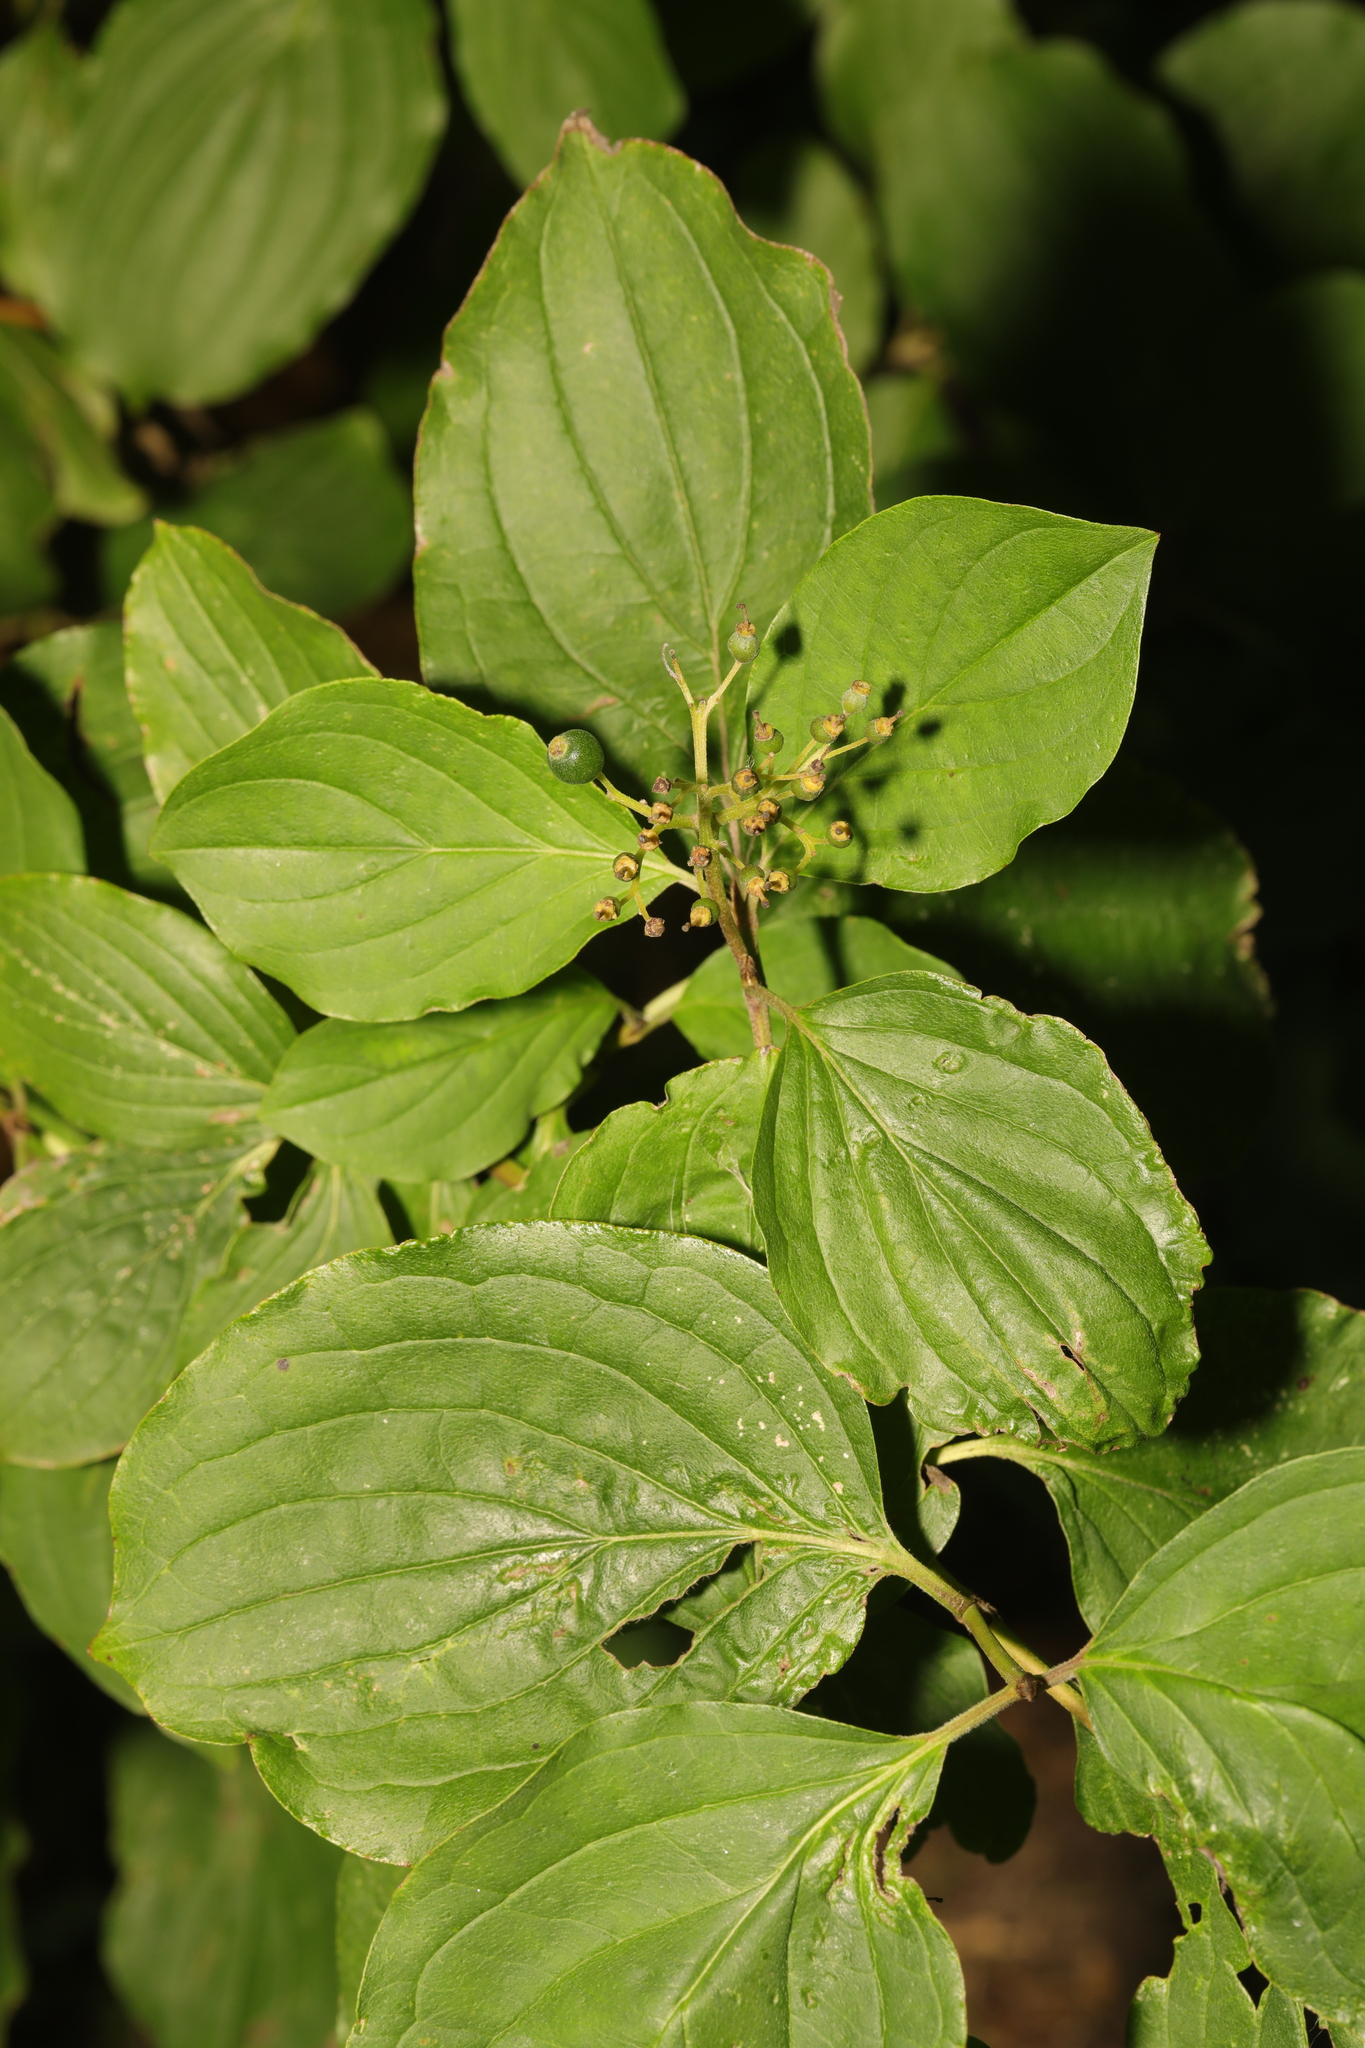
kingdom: Plantae
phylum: Tracheophyta
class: Magnoliopsida
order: Cornales
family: Cornaceae
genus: Cornus
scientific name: Cornus sanguinea
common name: Dogwood
